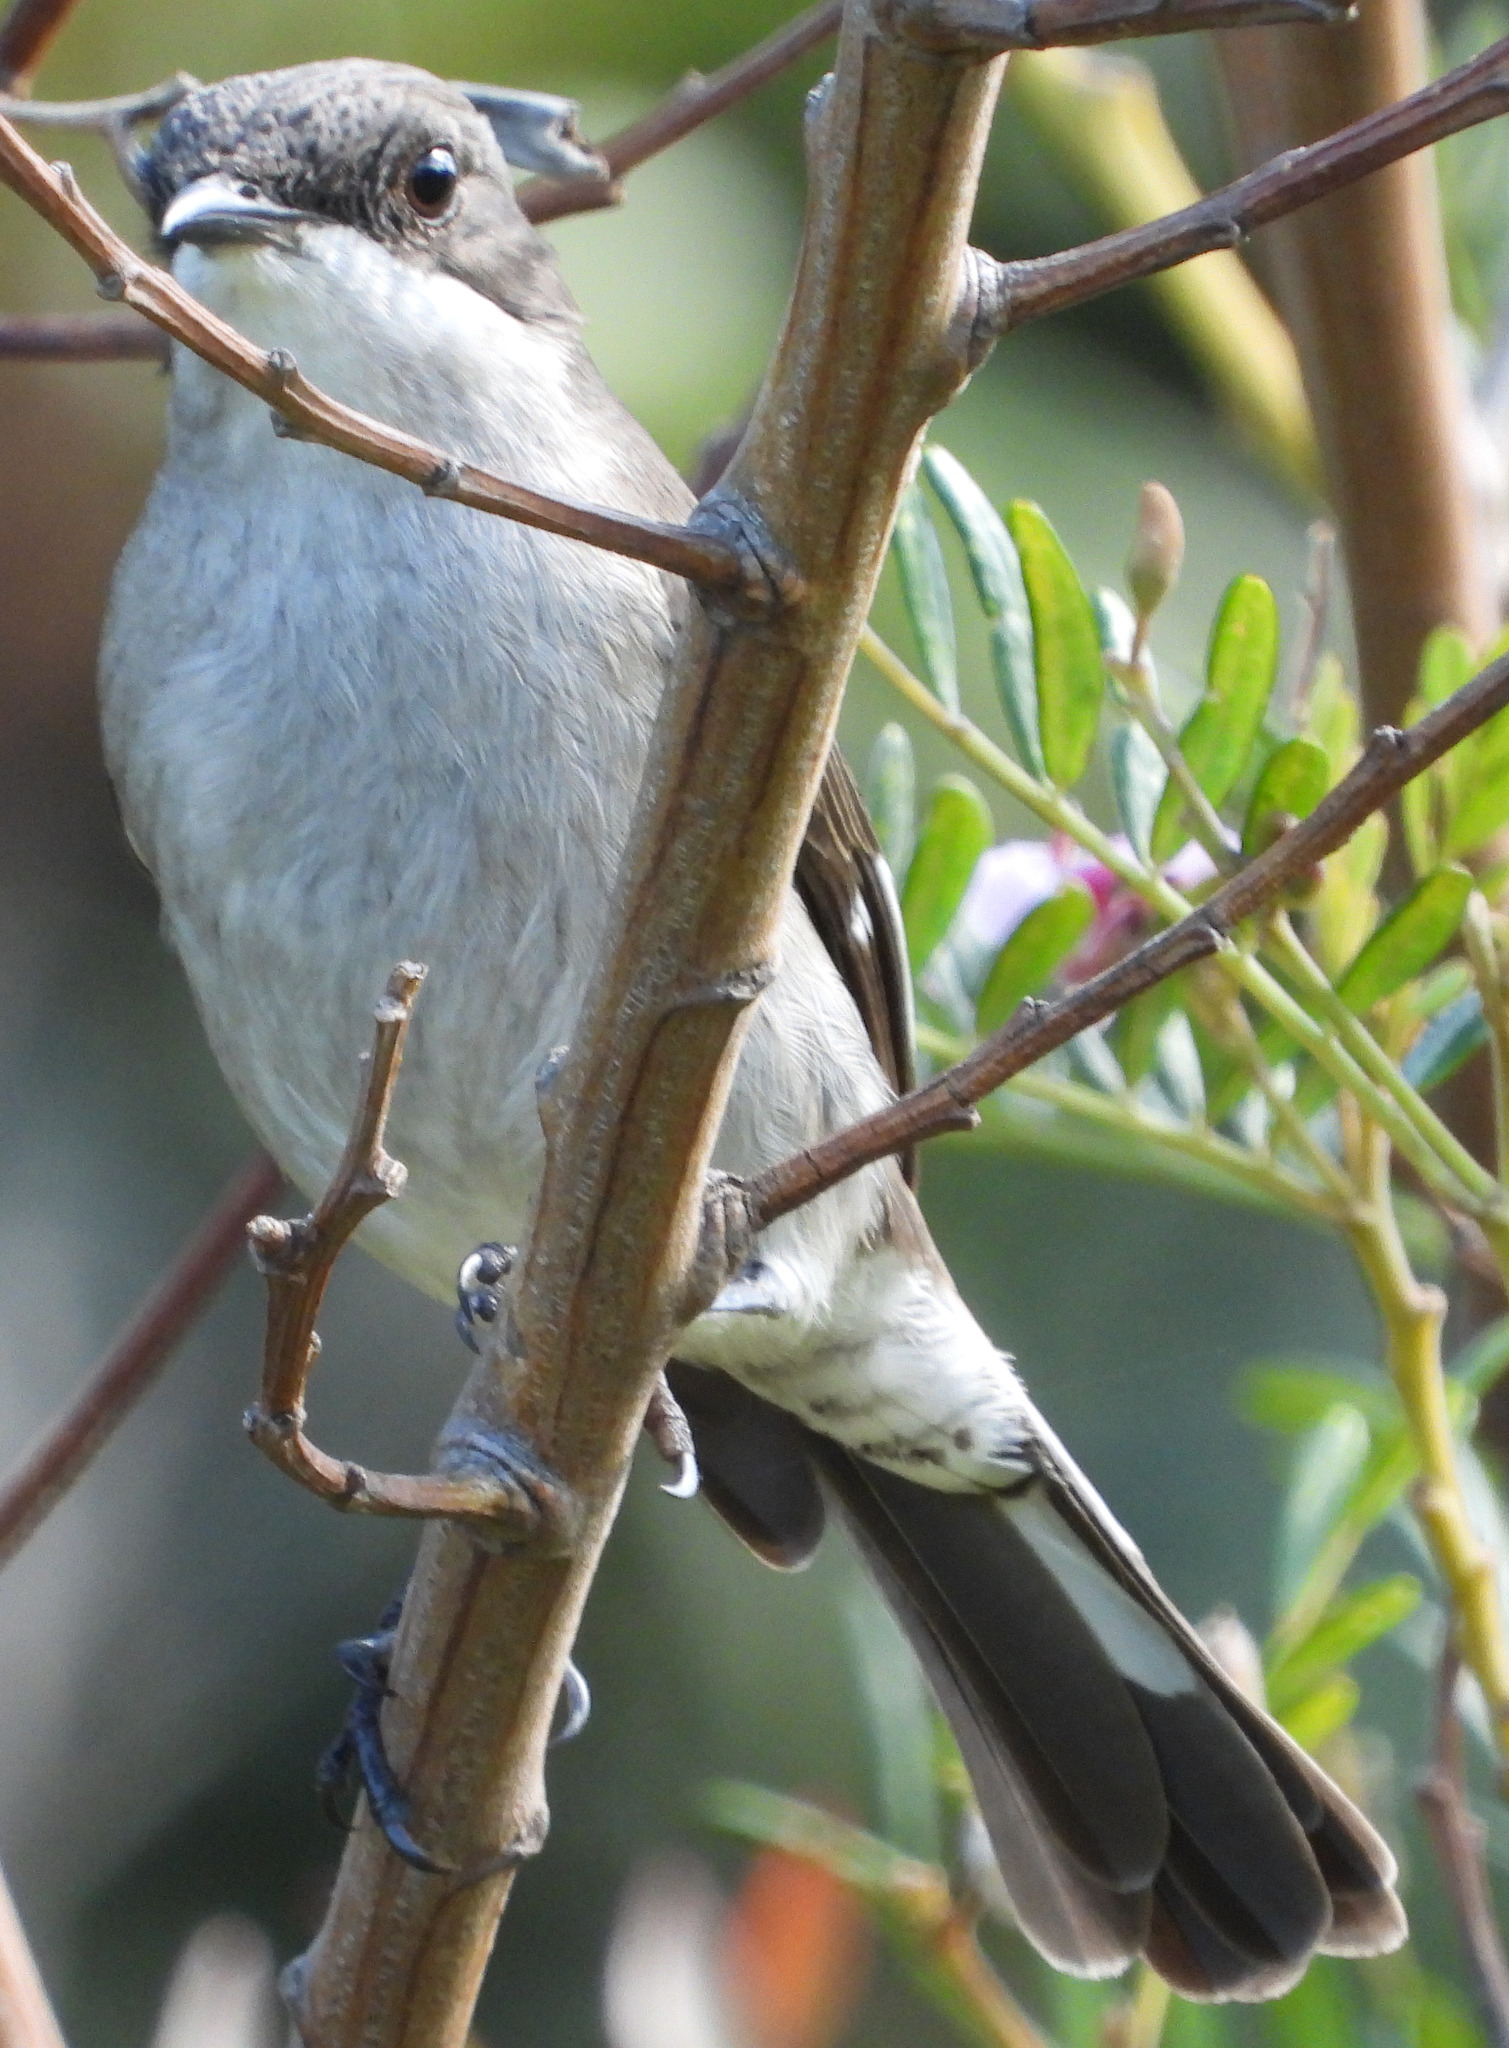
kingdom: Animalia
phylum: Chordata
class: Aves
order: Passeriformes
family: Muscicapidae
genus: Sigelus
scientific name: Sigelus silens
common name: Fiscal flycatcher
